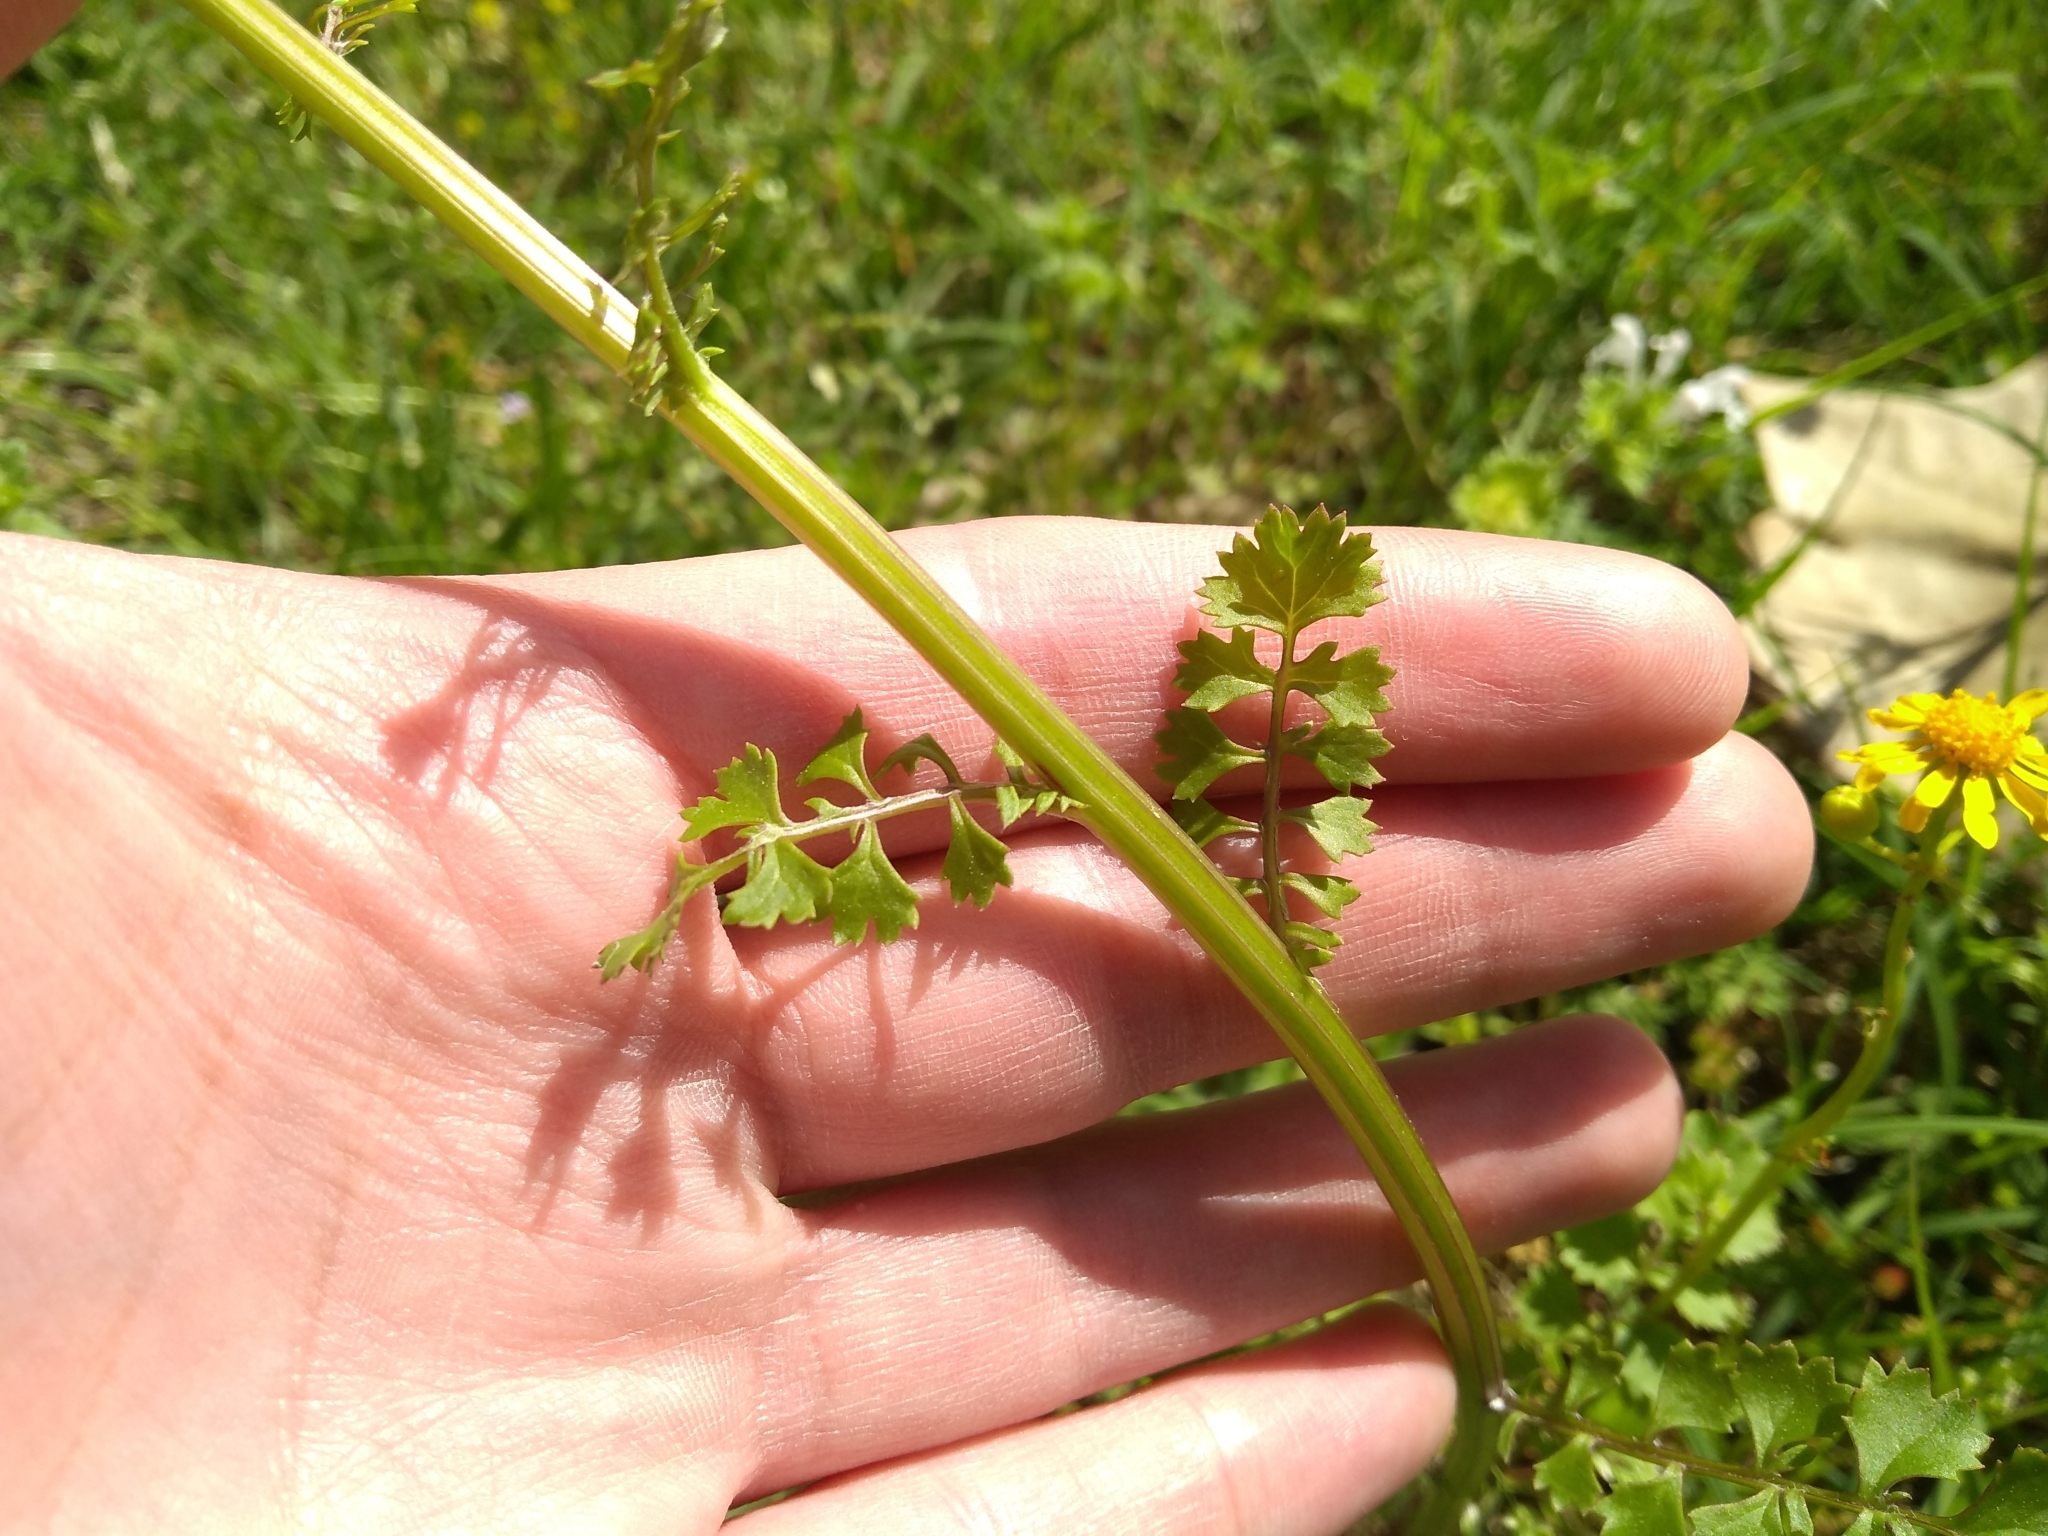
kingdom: Plantae
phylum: Tracheophyta
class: Magnoliopsida
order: Asterales
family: Asteraceae
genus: Packera
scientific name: Packera glabella
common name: Butterweed
